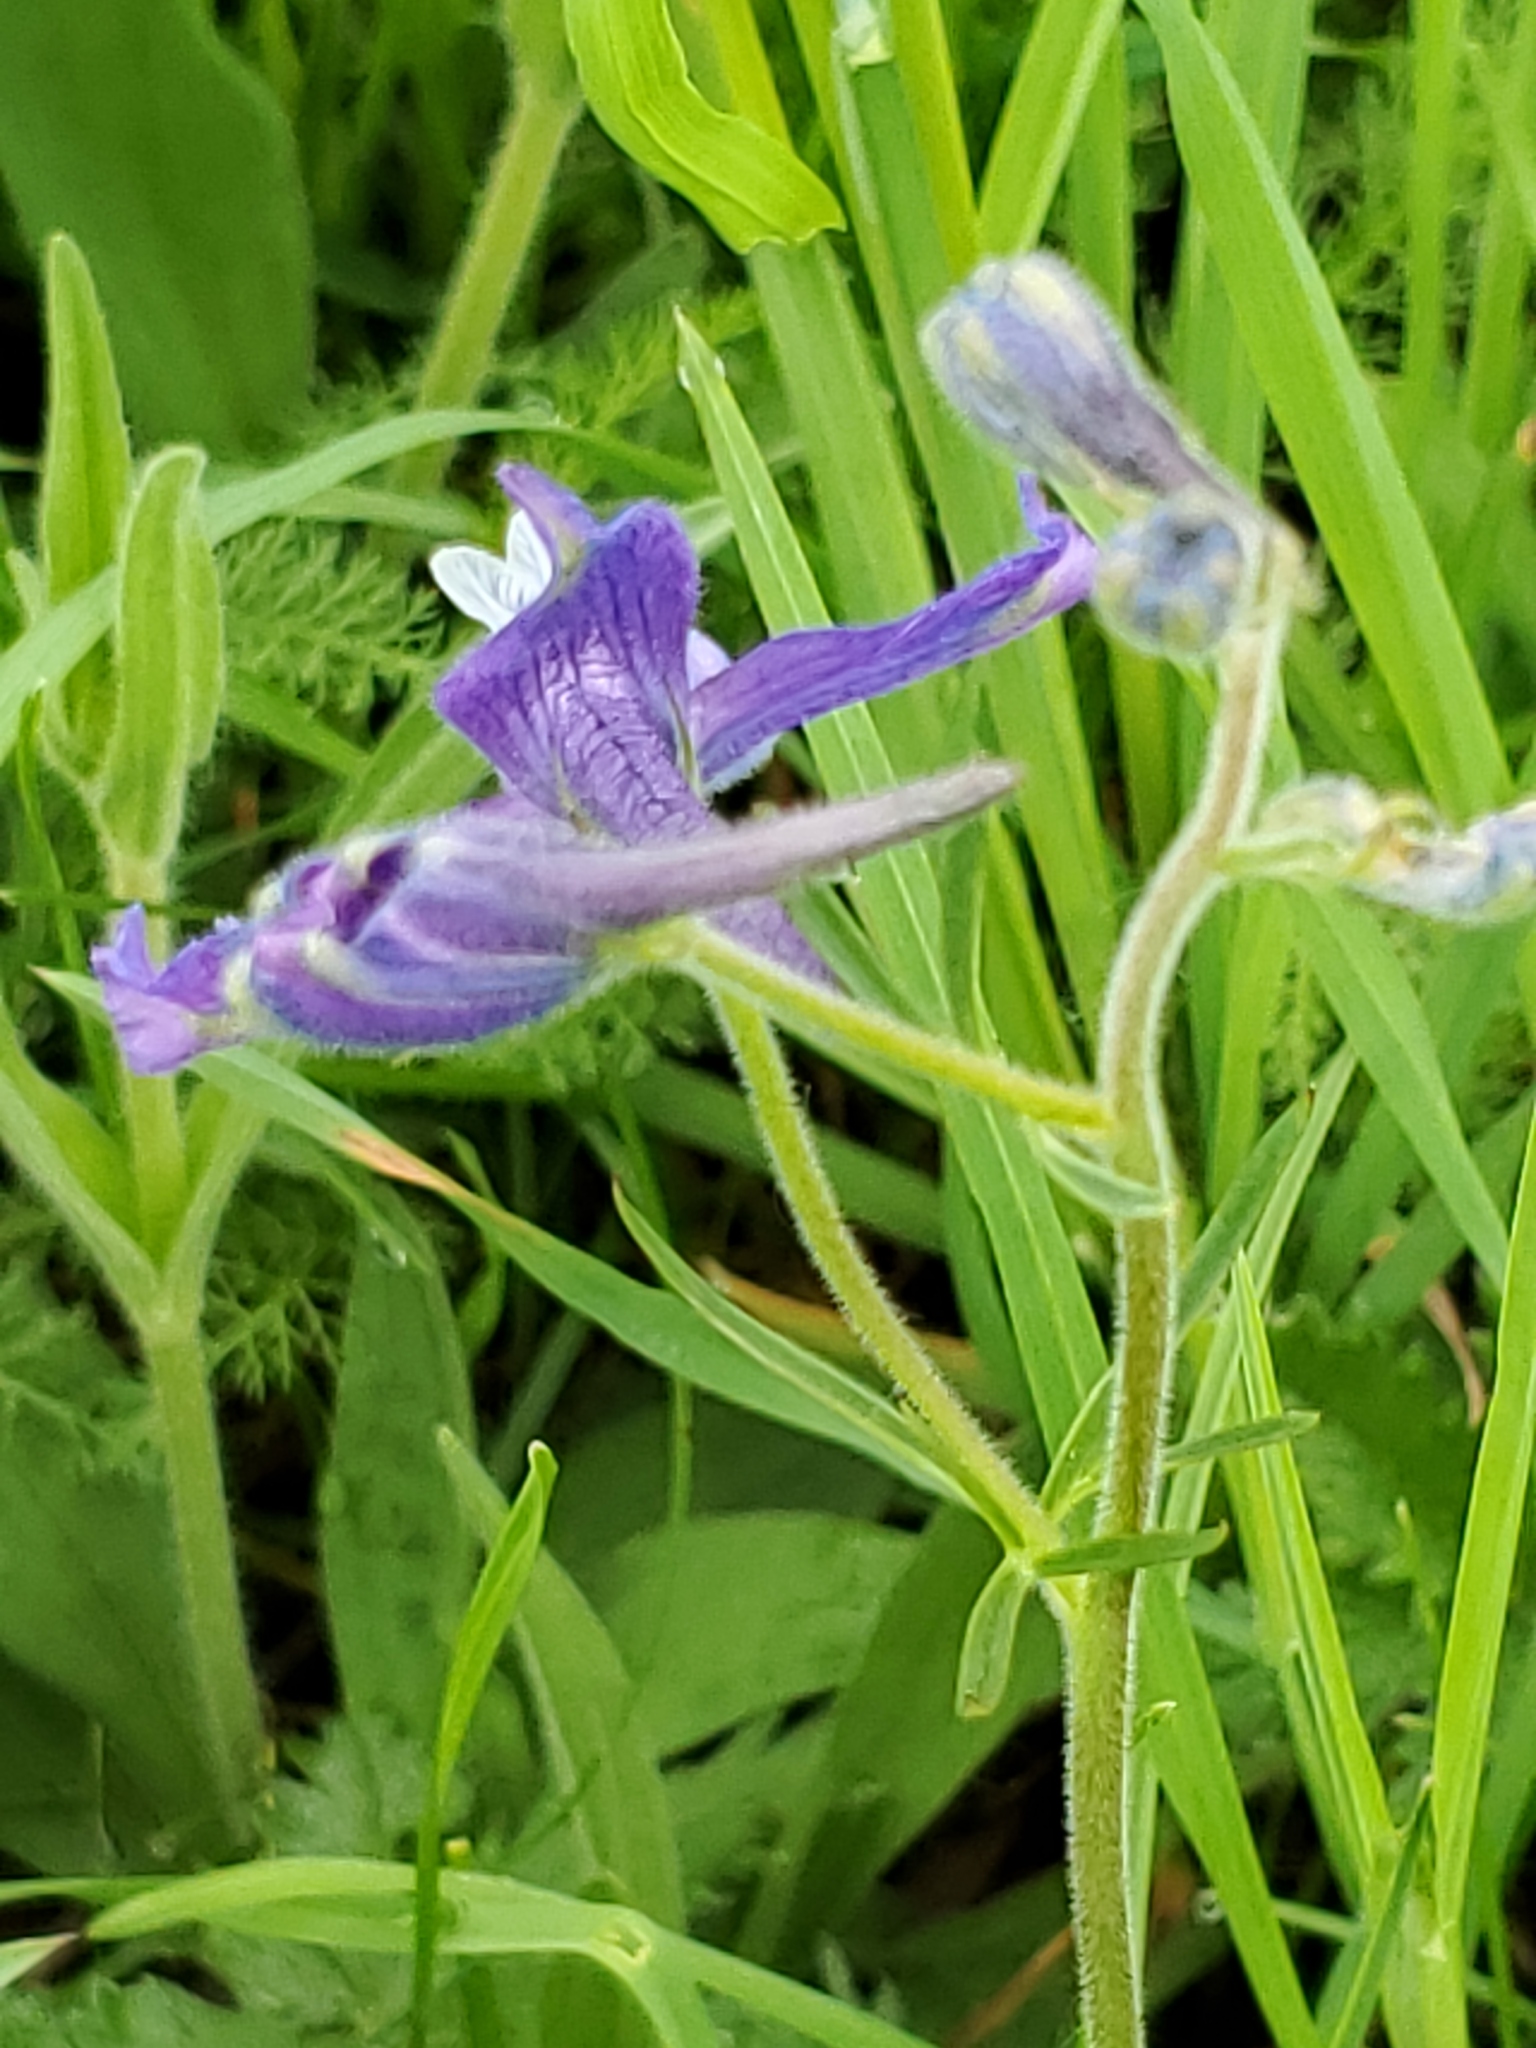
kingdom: Plantae
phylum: Tracheophyta
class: Magnoliopsida
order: Ranunculales
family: Ranunculaceae
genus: Delphinium
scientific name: Delphinium bicolor
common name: Low larkspur
